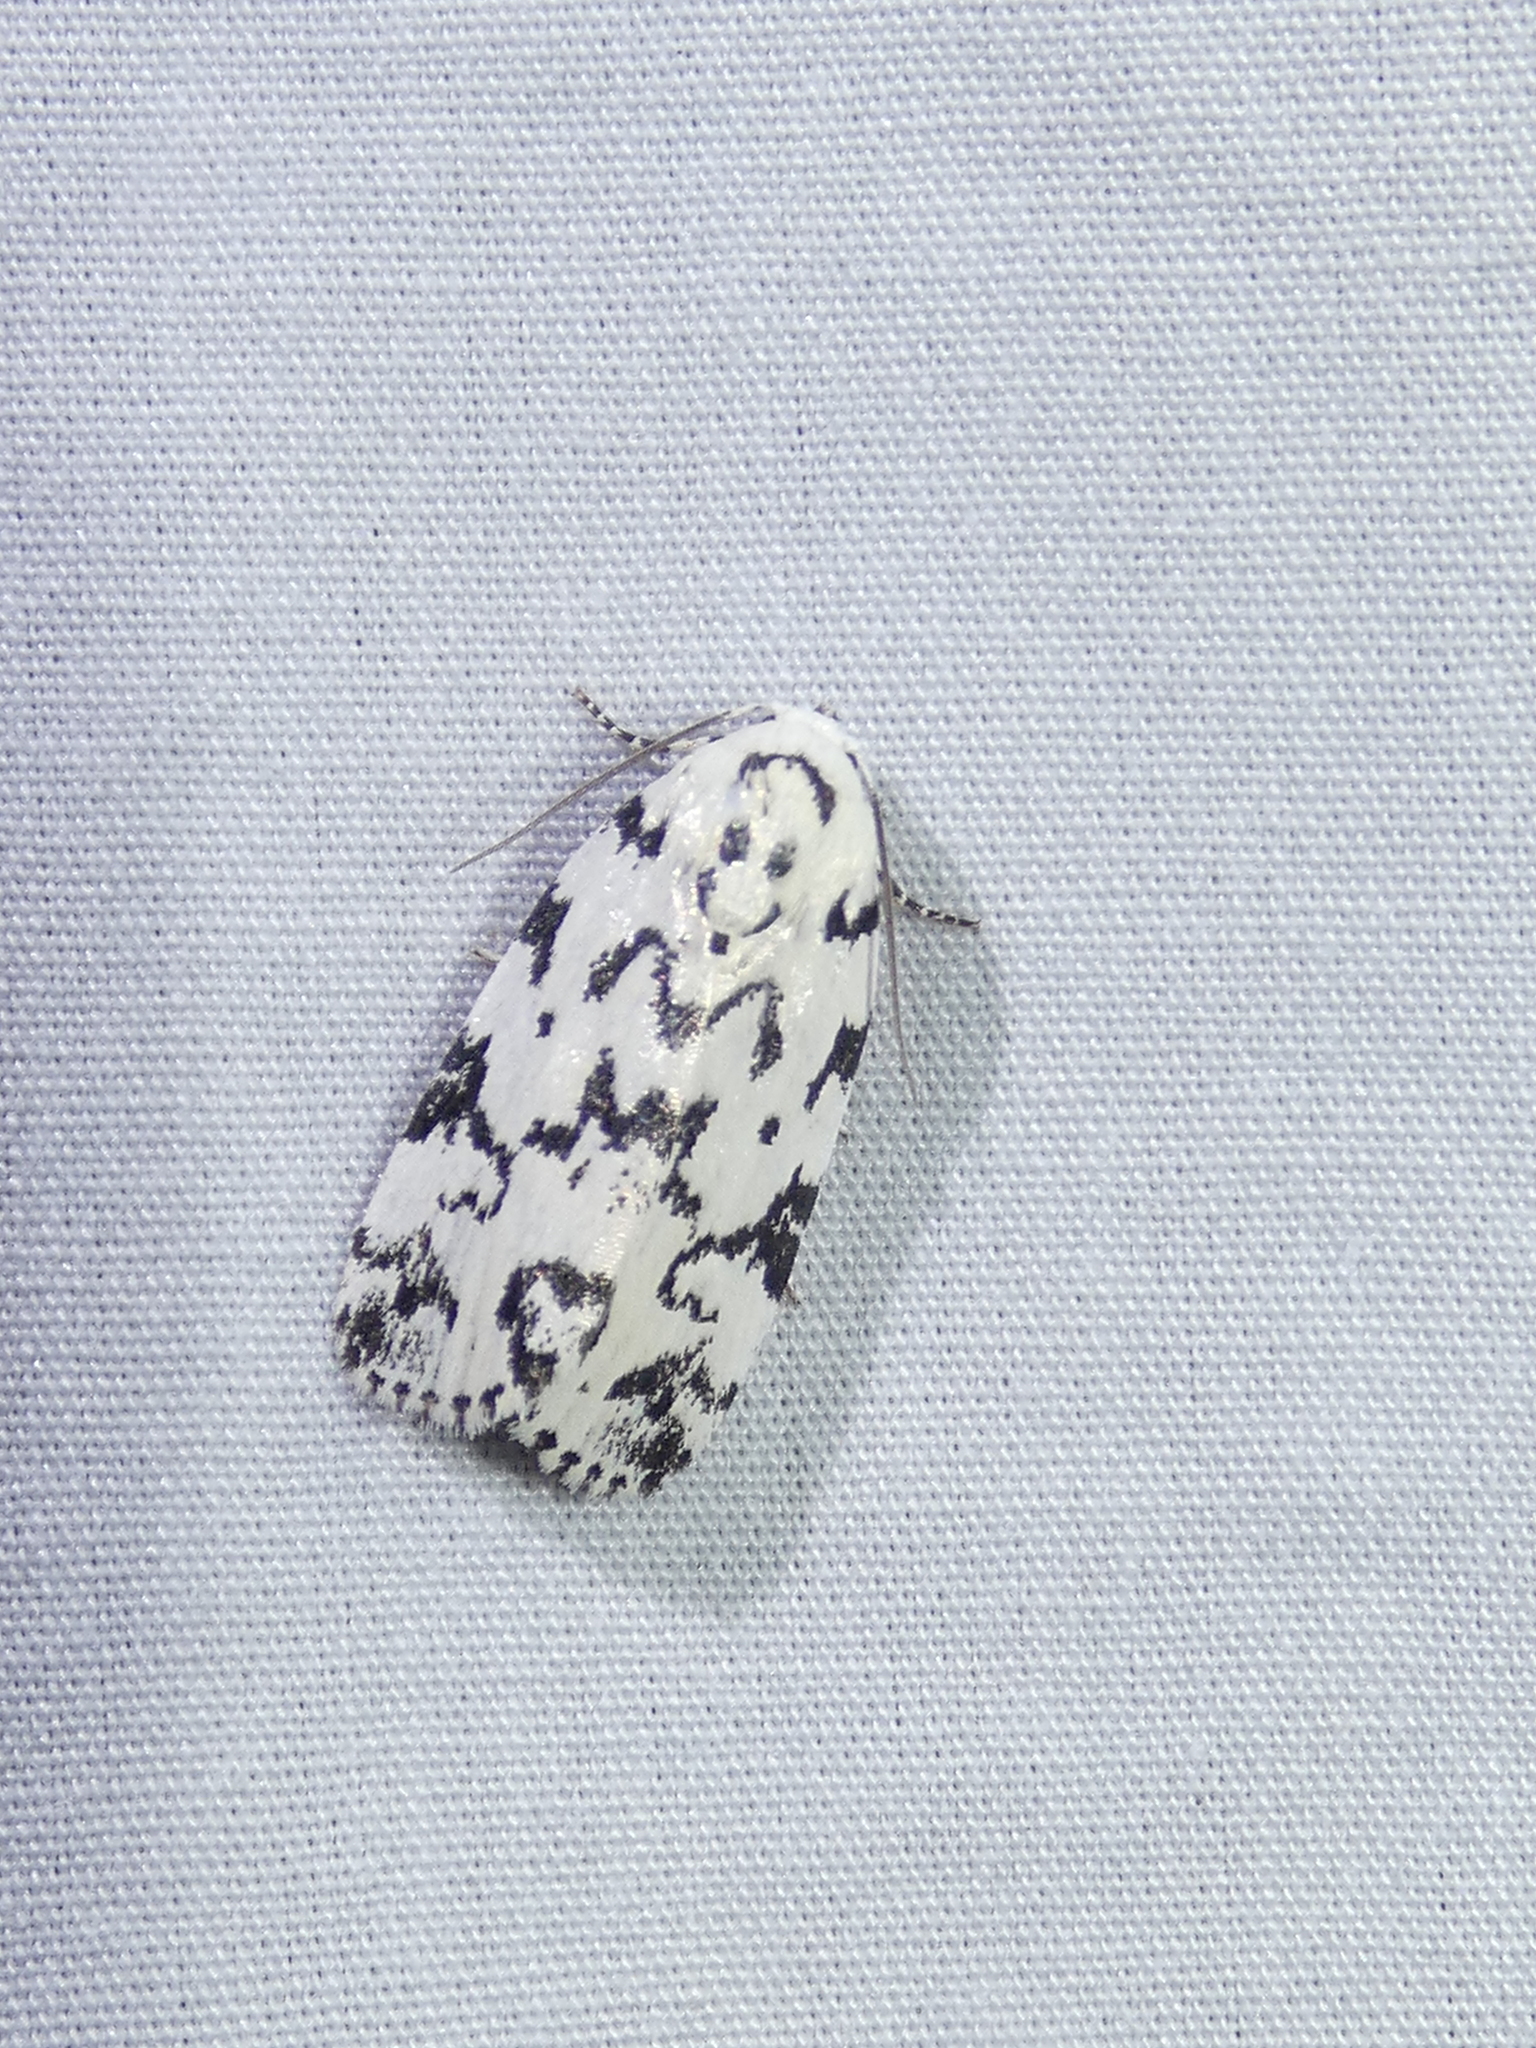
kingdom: Animalia
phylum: Arthropoda
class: Insecta
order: Lepidoptera
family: Noctuidae
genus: Polygrammate
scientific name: Polygrammate hebraeicum
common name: Hebrew moth
